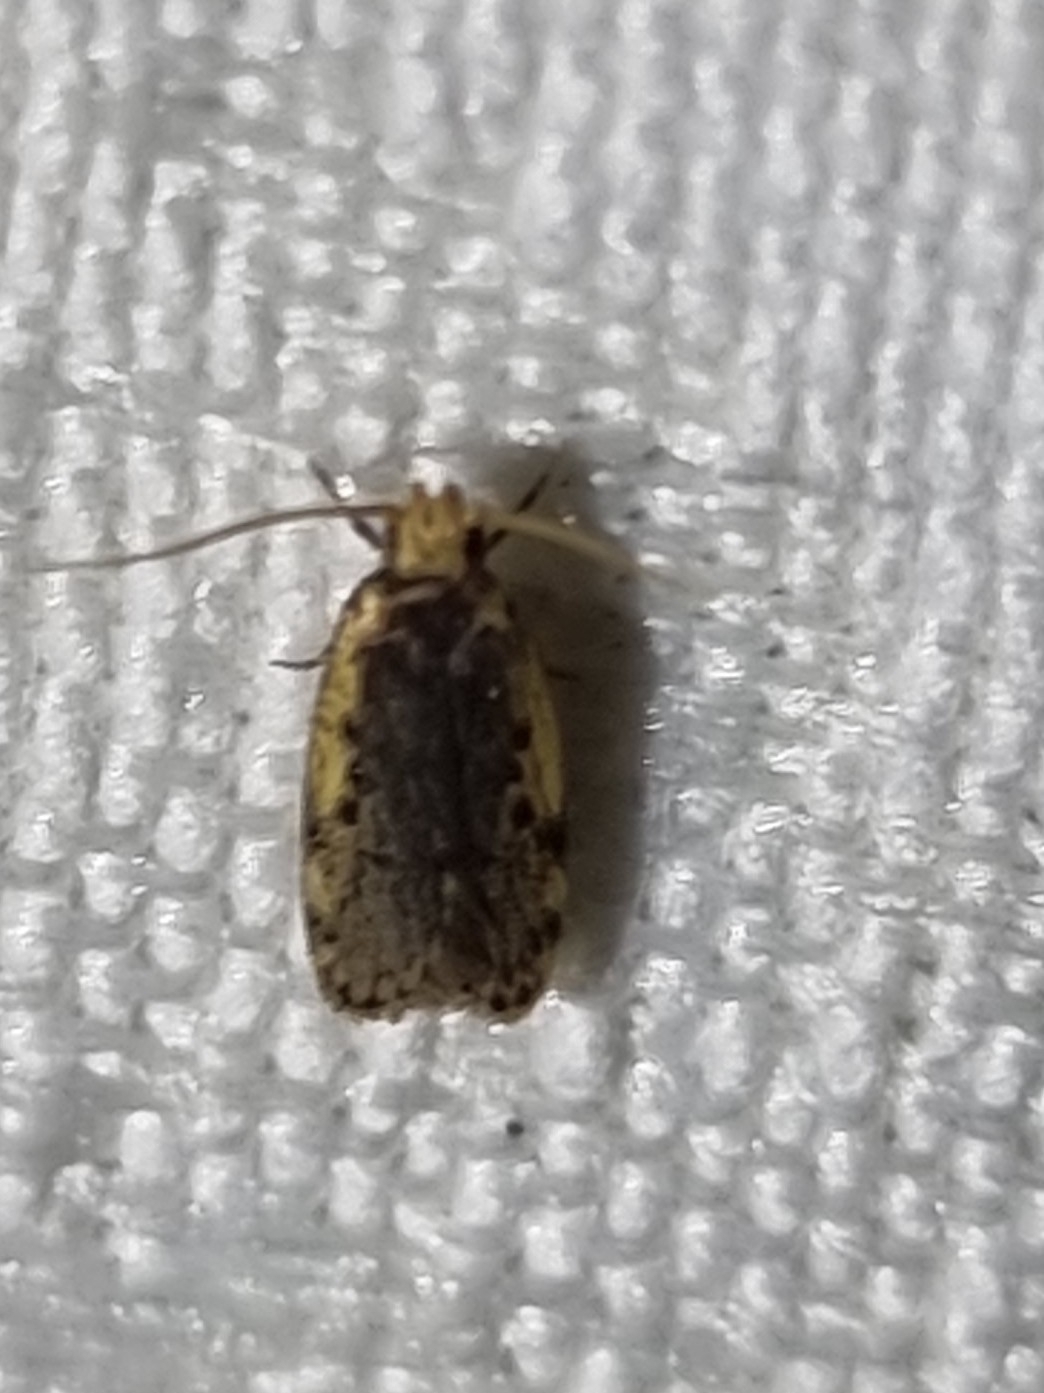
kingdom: Animalia
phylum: Arthropoda
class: Insecta
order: Lepidoptera
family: Oecophoridae
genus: Hoplostega
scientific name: Hoplostega ochroma
